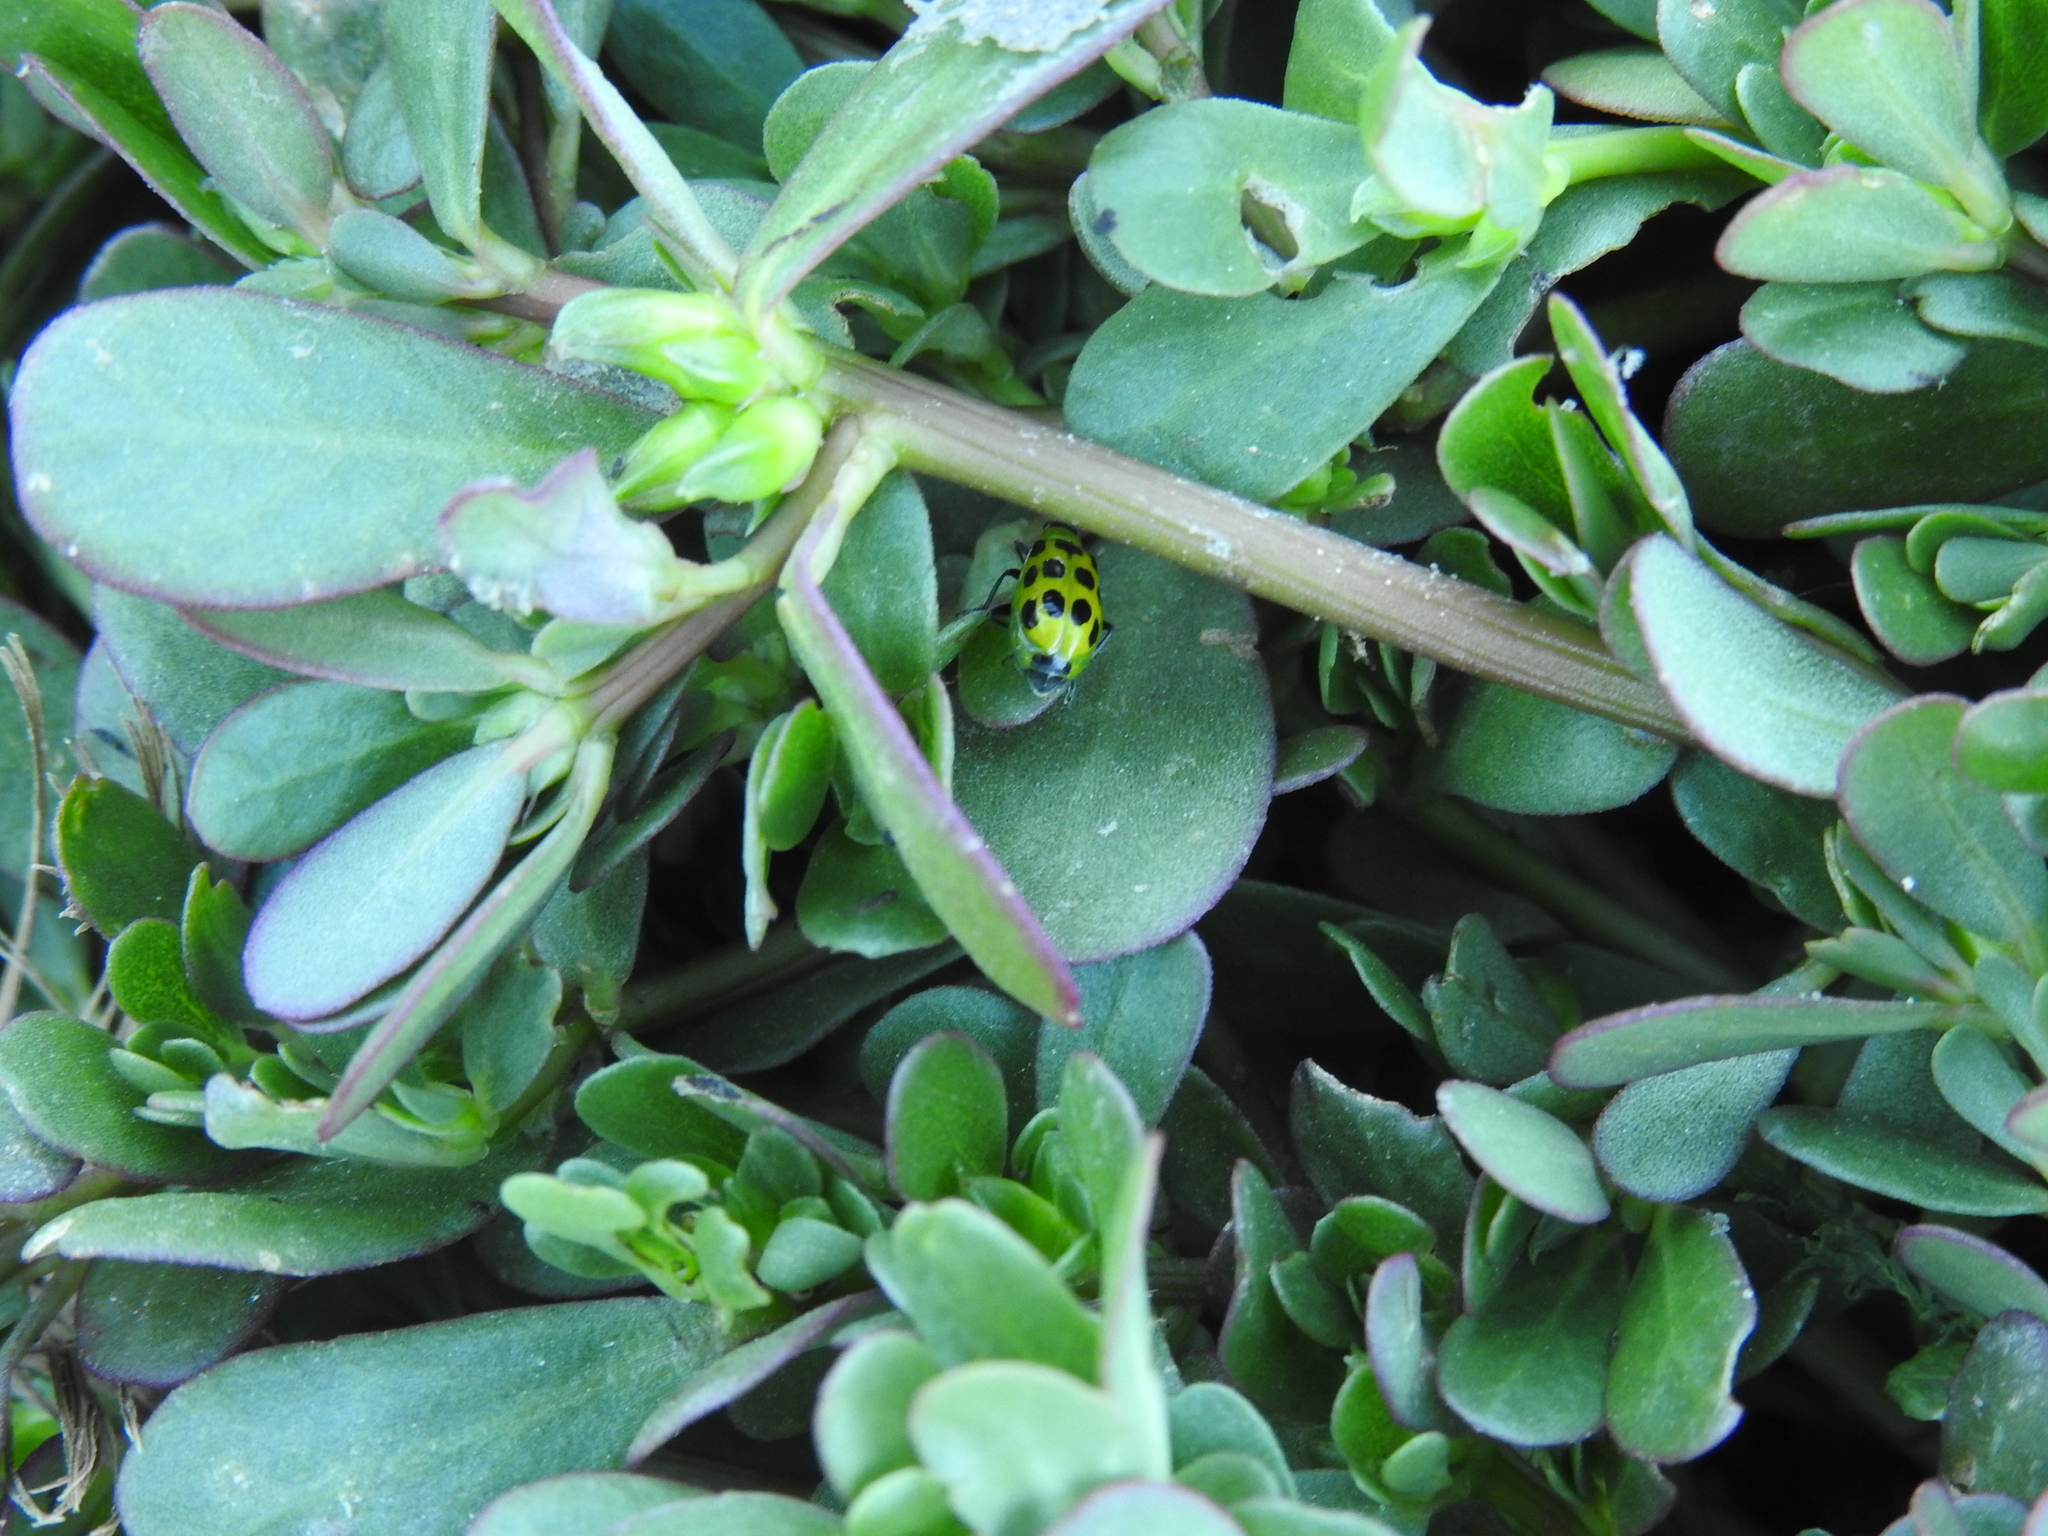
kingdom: Animalia
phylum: Arthropoda
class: Insecta
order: Coleoptera
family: Chrysomelidae
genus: Diabrotica
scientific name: Diabrotica undecimpunctata
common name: Spotted cucumber beetle
